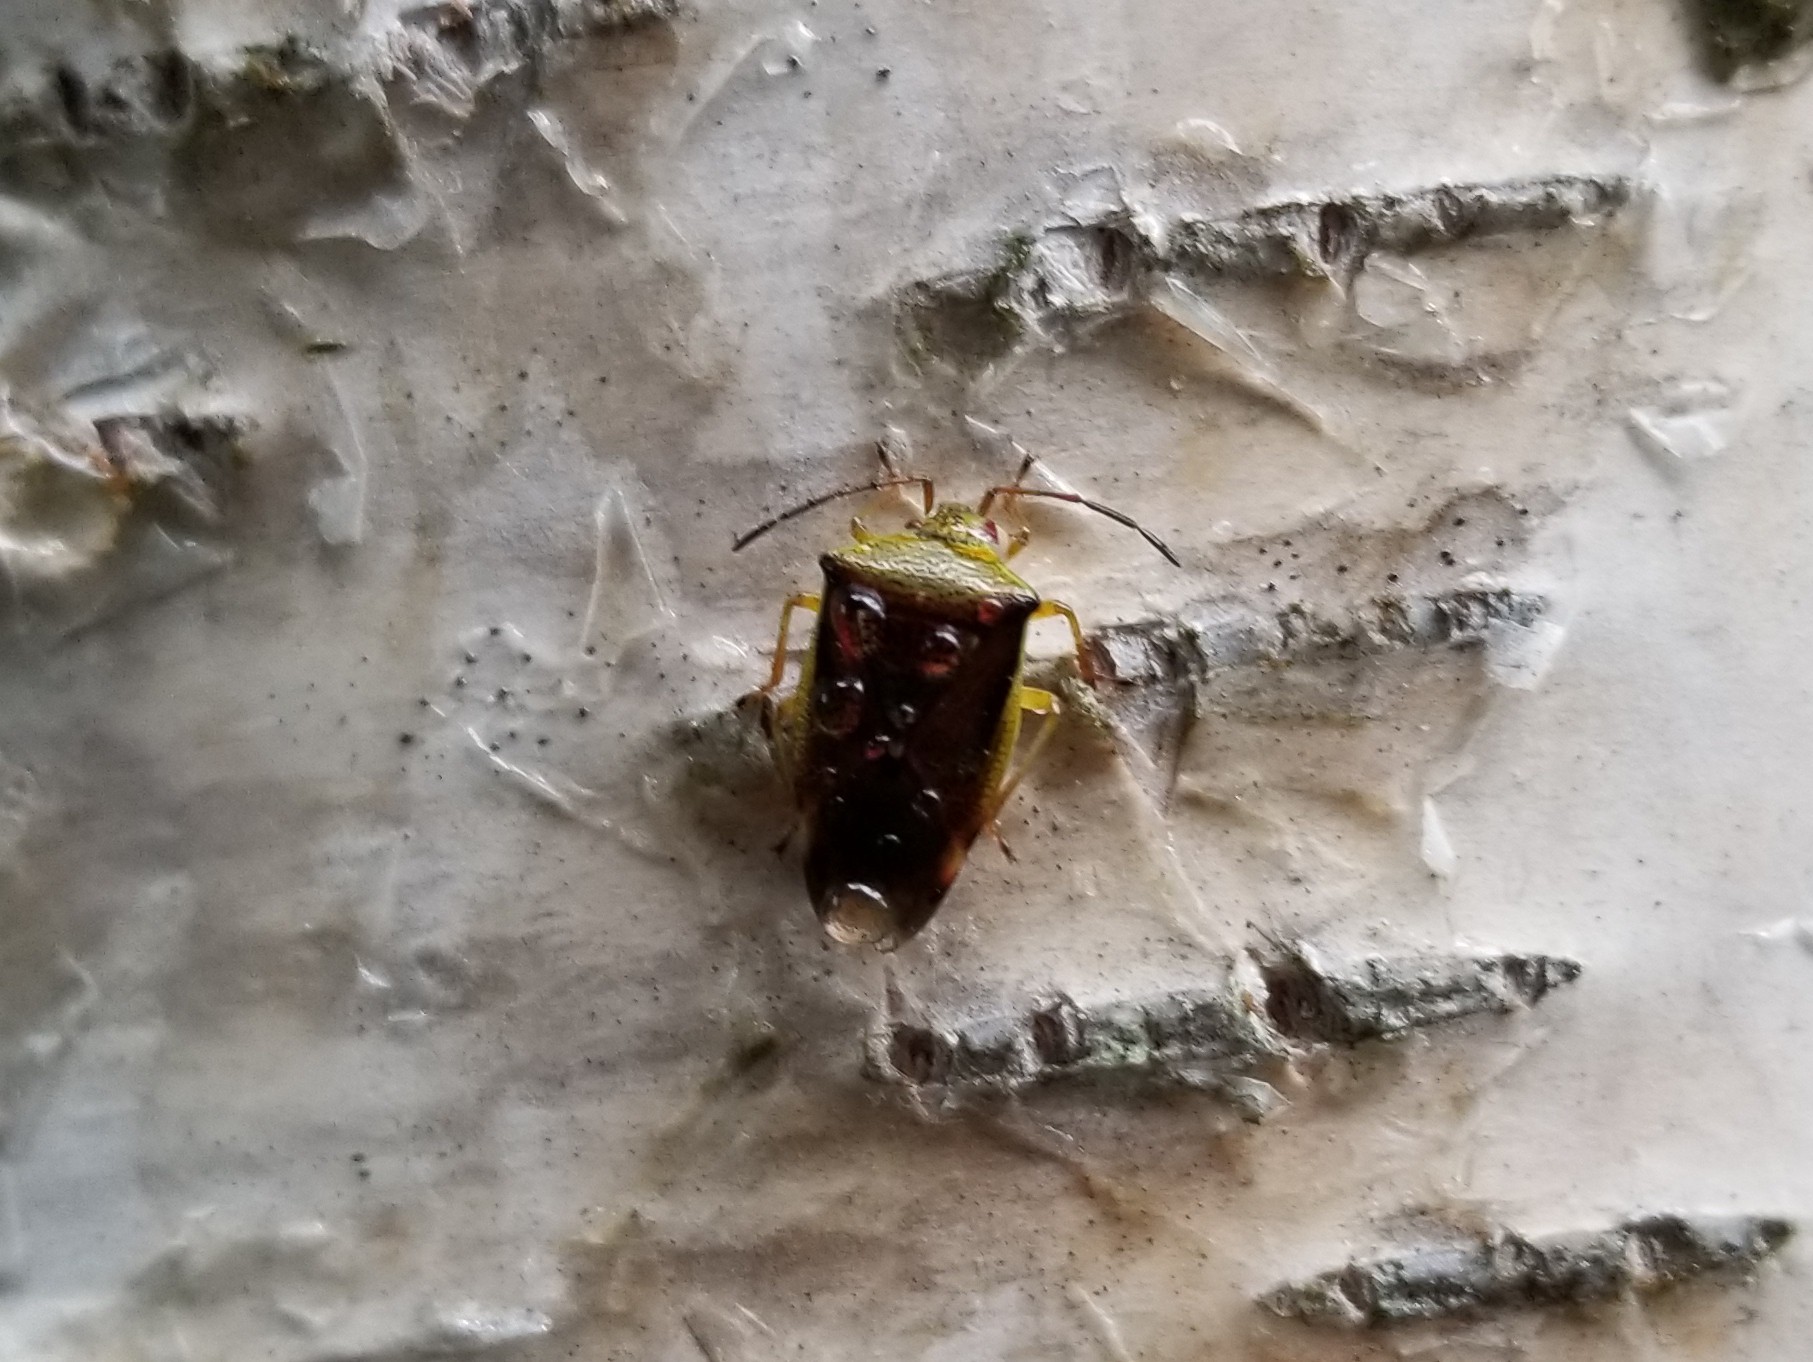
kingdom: Animalia
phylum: Arthropoda
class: Insecta
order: Hemiptera
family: Acanthosomatidae
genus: Elasmostethus
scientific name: Elasmostethus interstinctus
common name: Birch shieldbug
